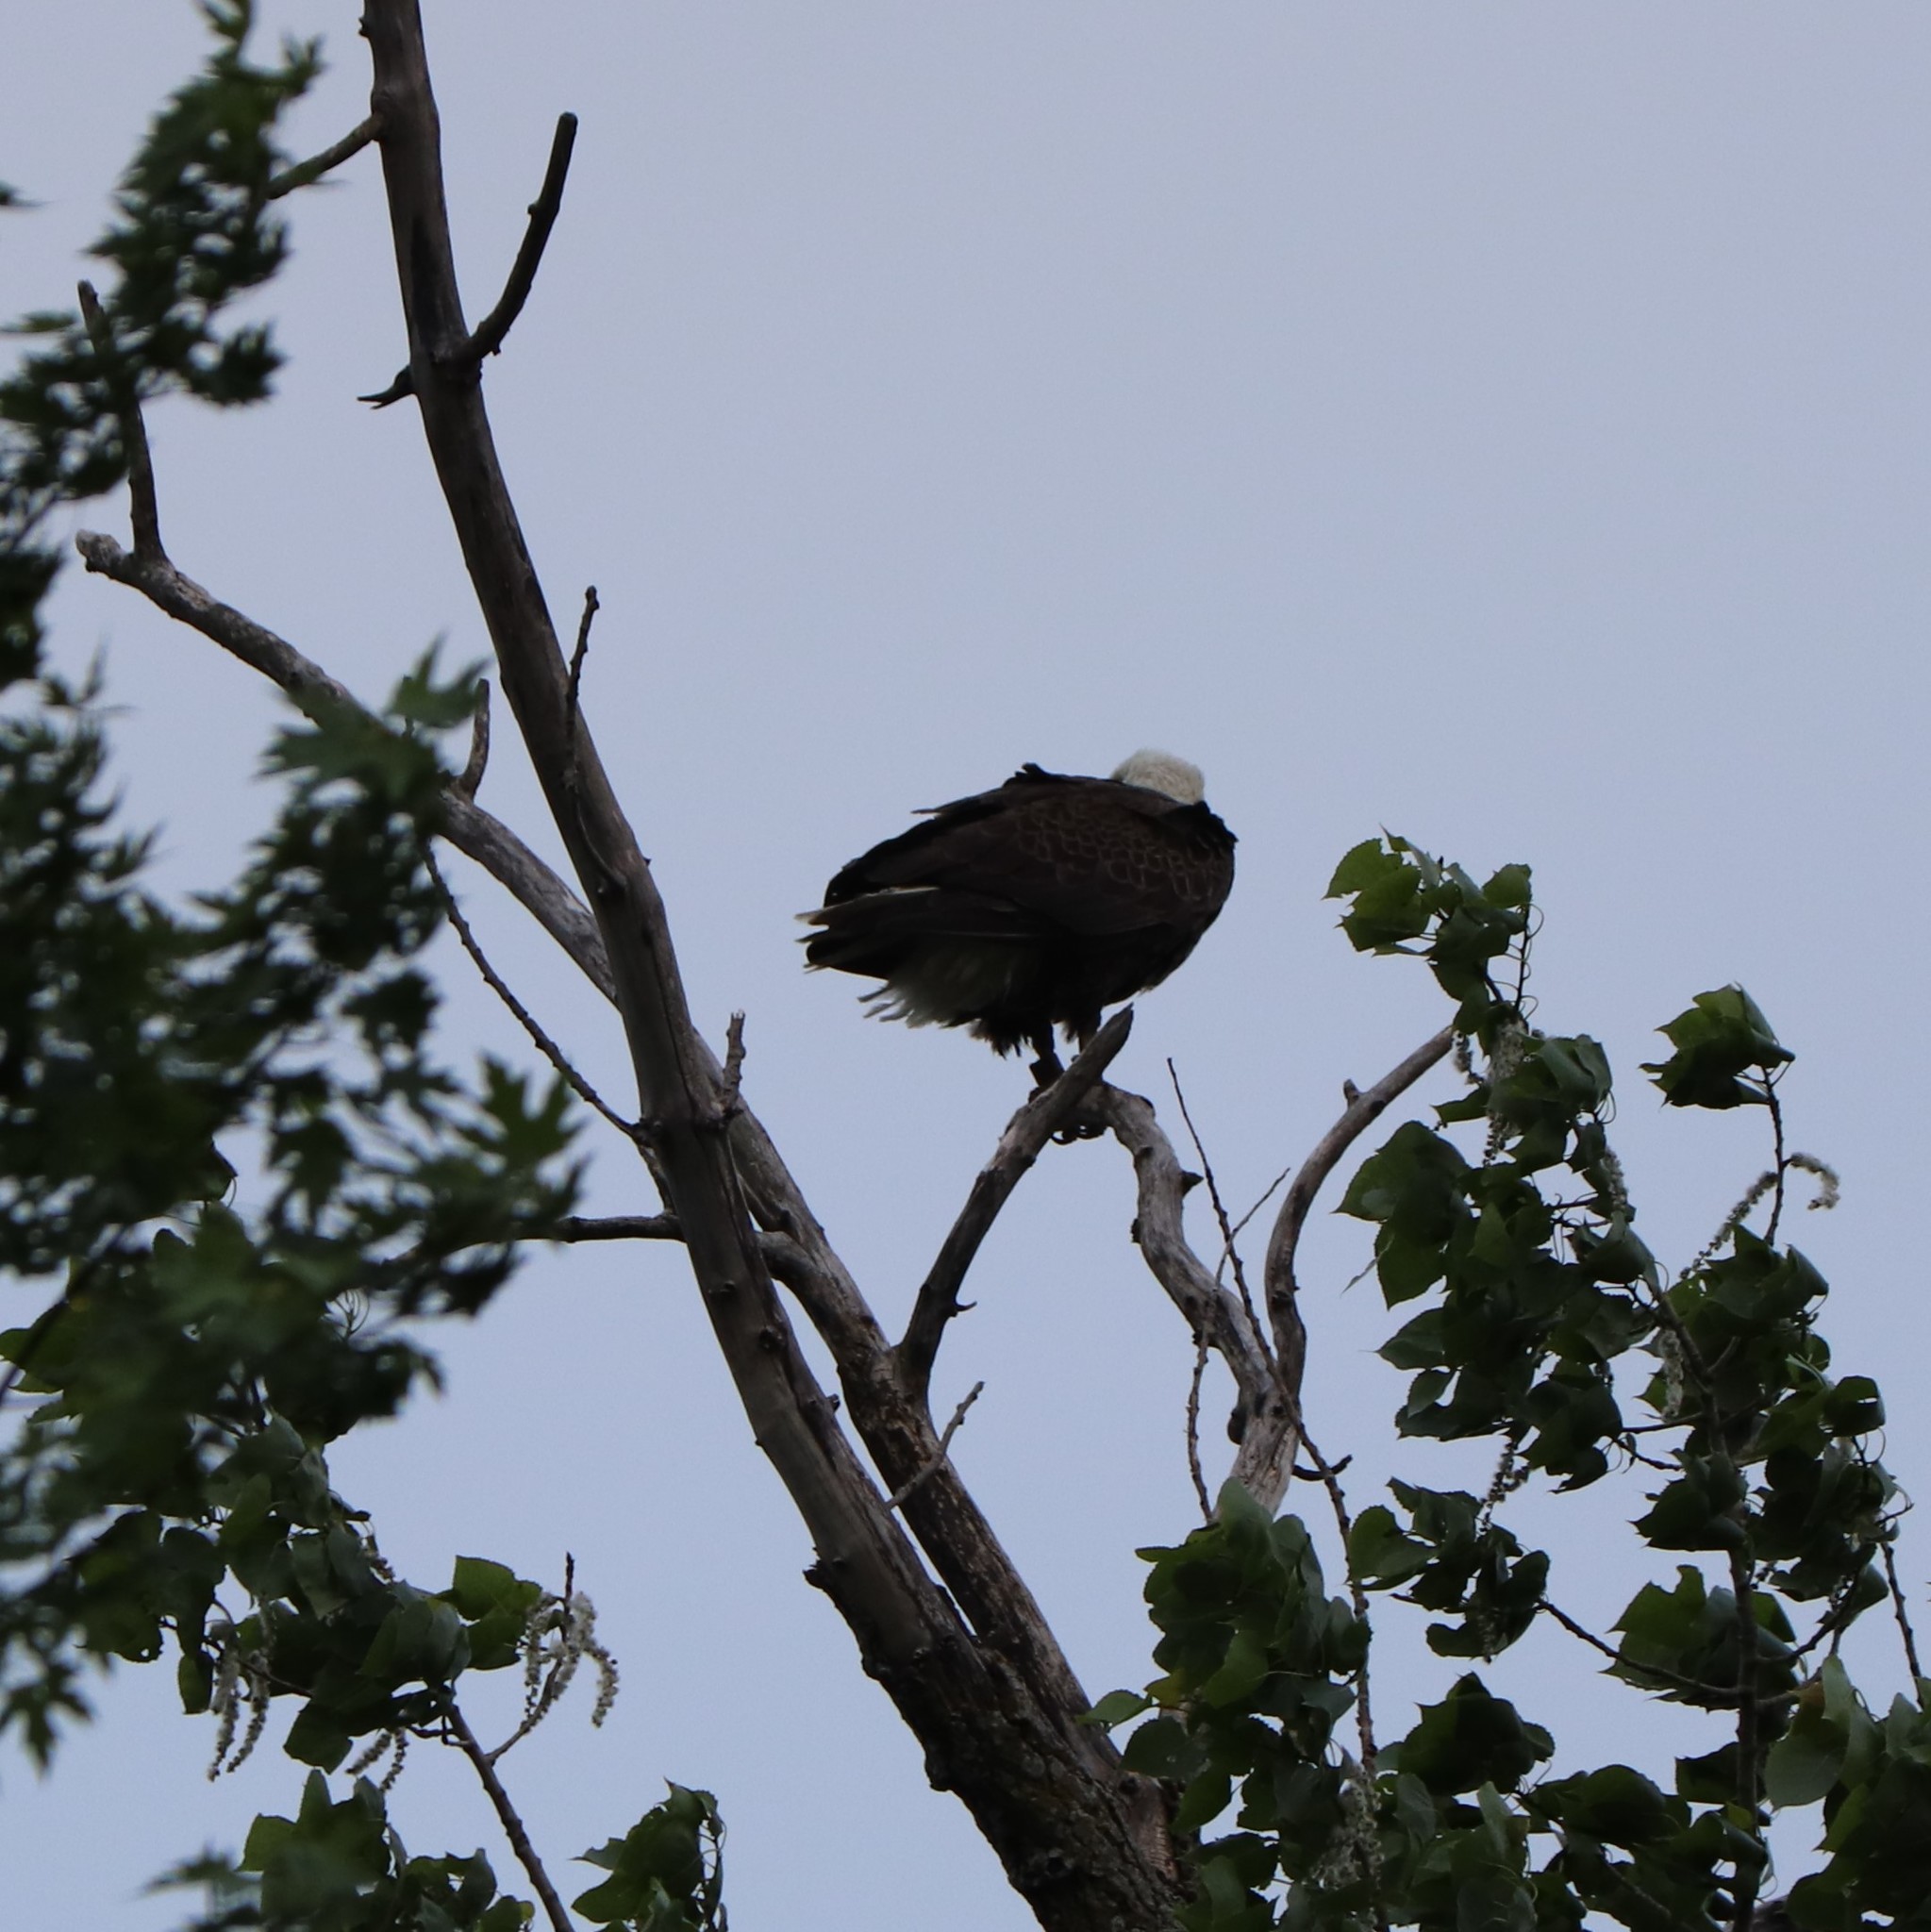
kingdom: Animalia
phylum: Chordata
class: Aves
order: Accipitriformes
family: Accipitridae
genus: Haliaeetus
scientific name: Haliaeetus leucocephalus
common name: Bald eagle
